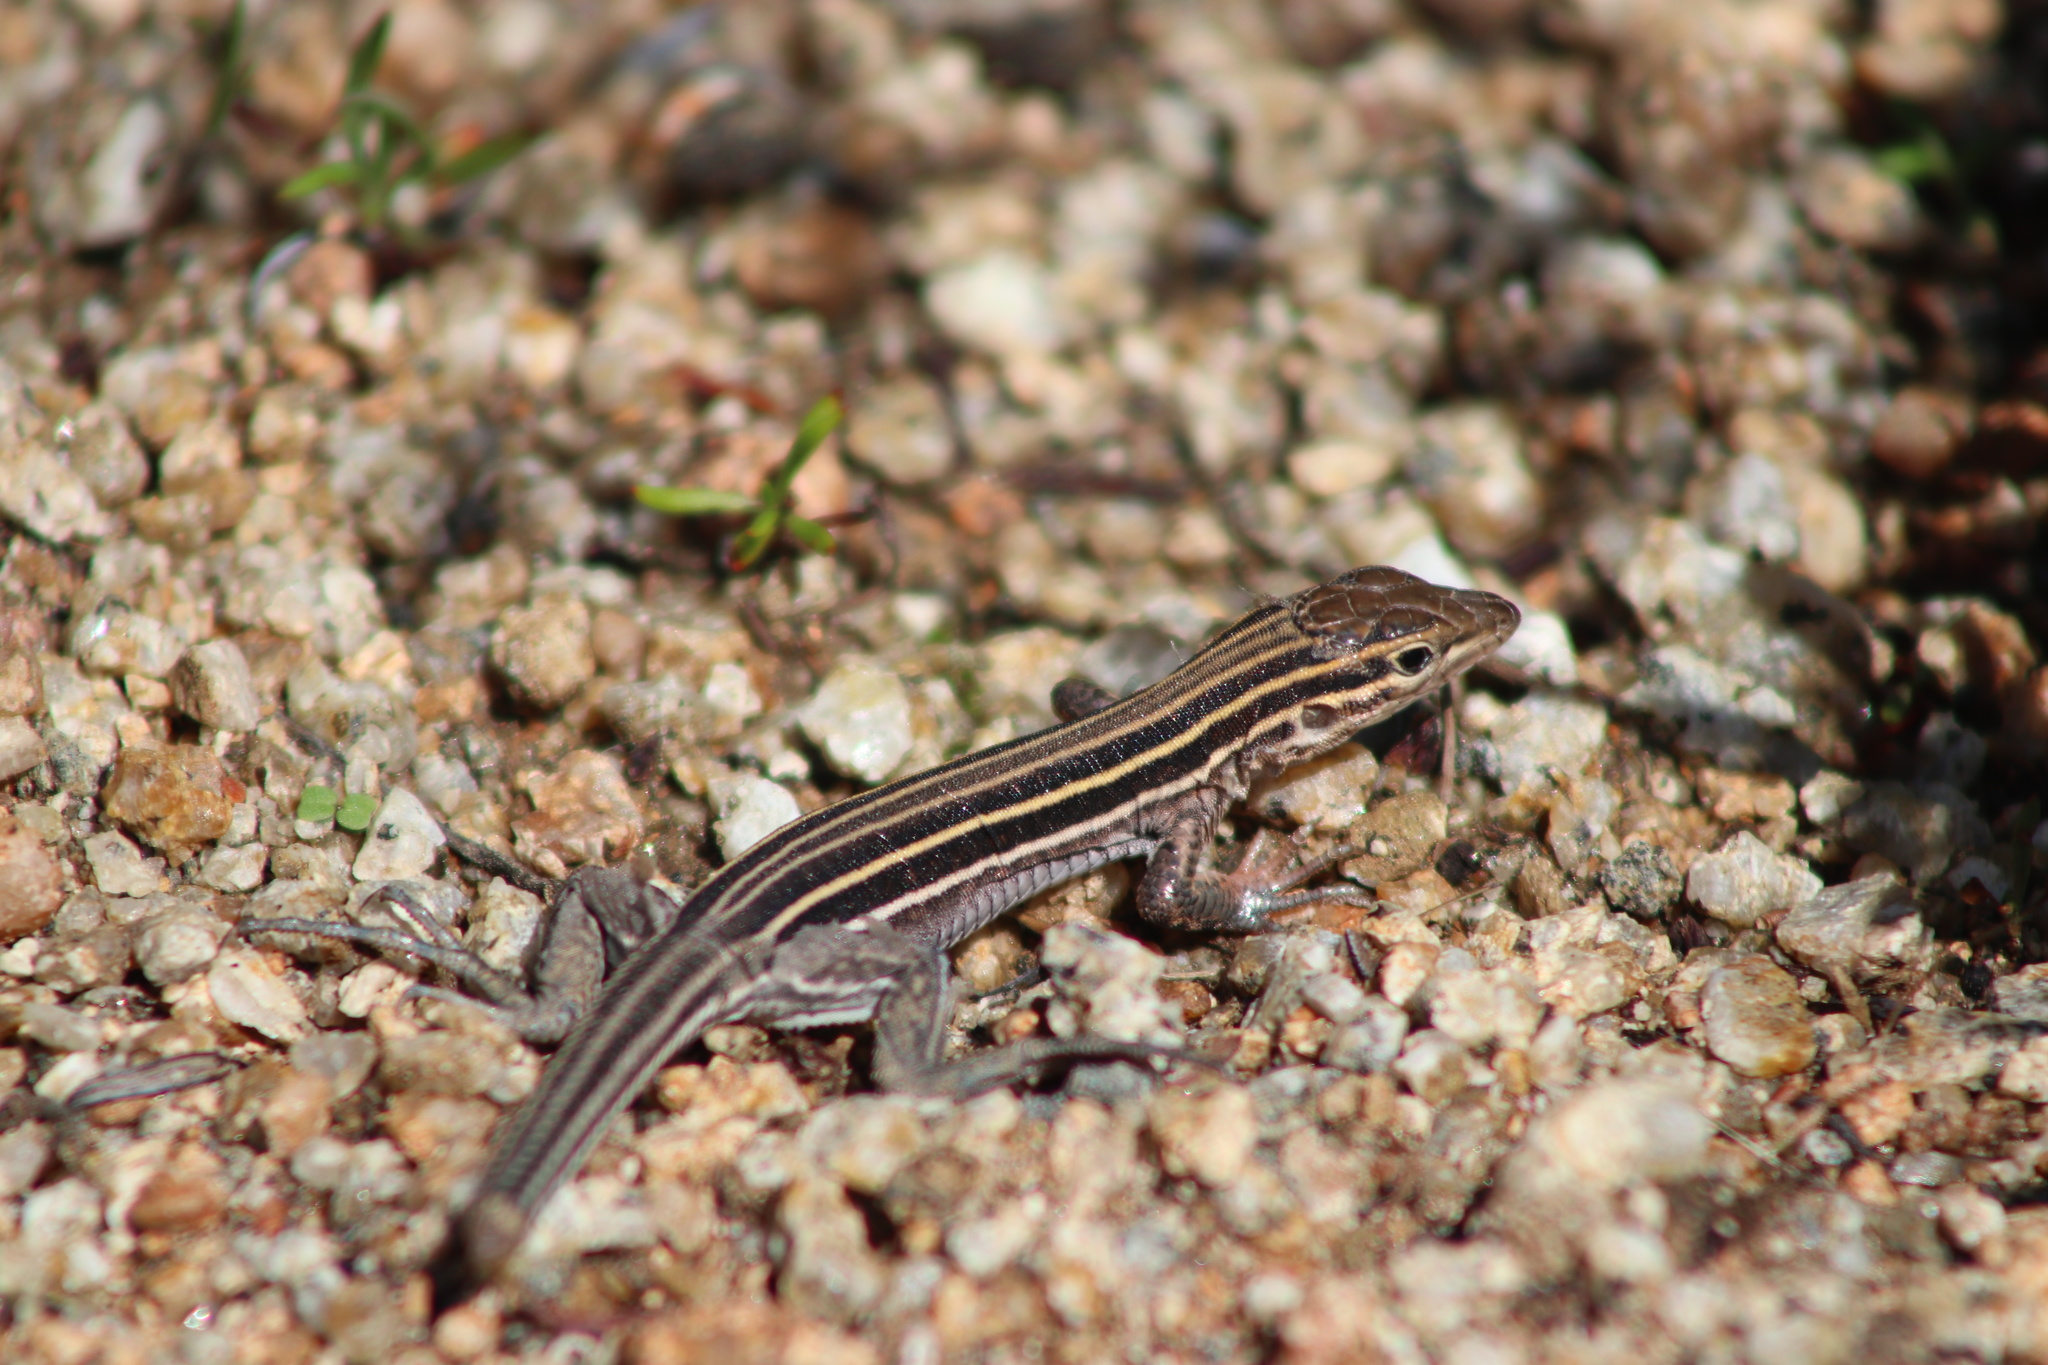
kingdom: Animalia
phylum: Chordata
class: Squamata
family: Teiidae
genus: Aspidoscelis
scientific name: Aspidoscelis hyperythrus
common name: Orange-throated race-runner
